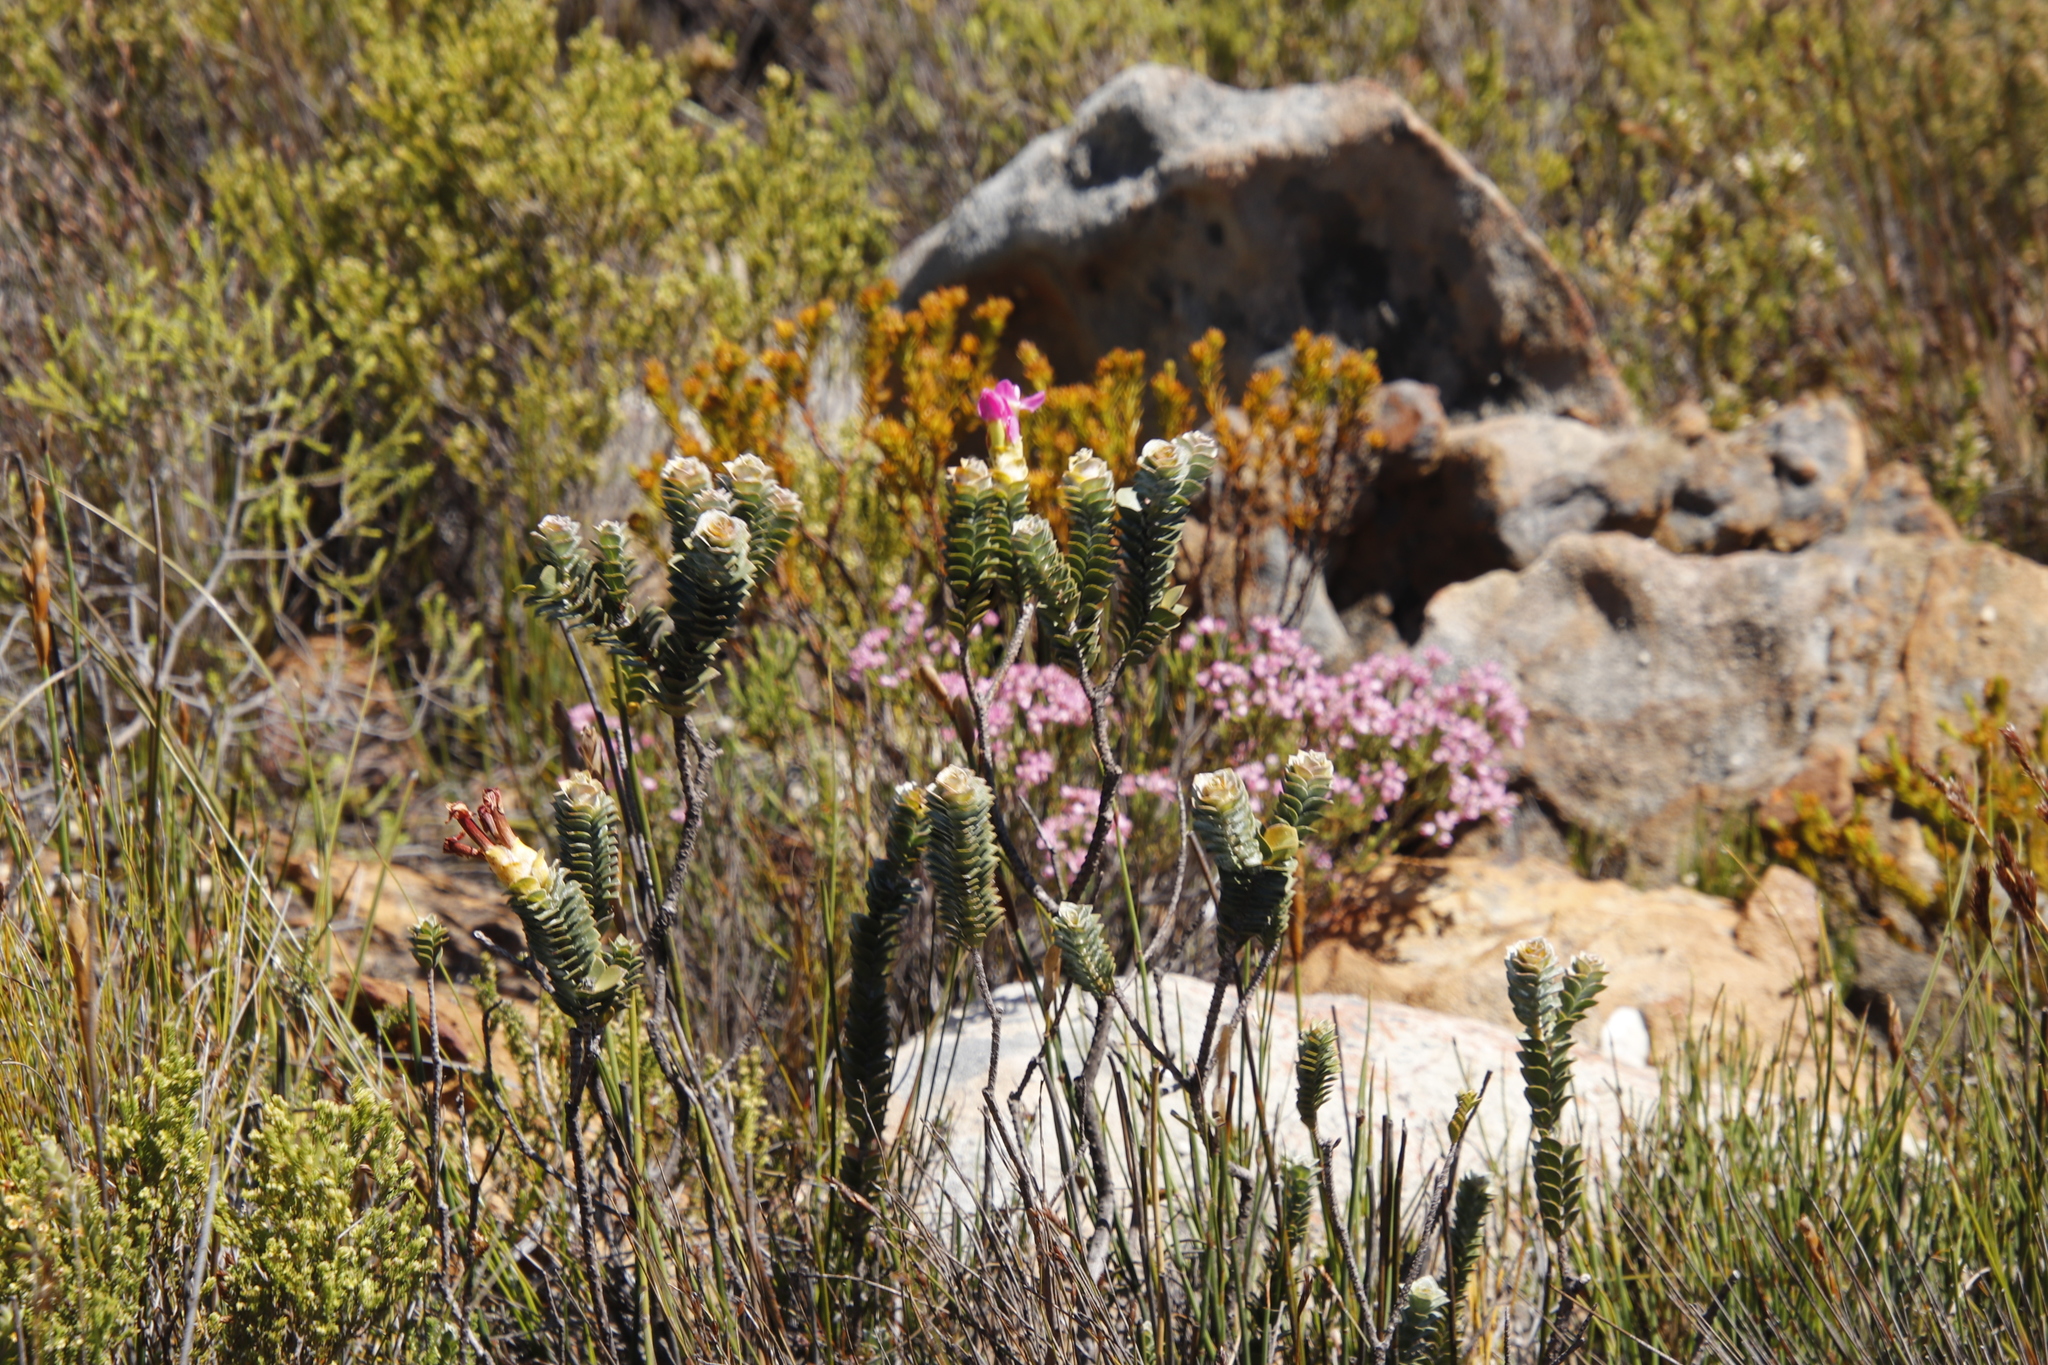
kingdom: Plantae
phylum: Tracheophyta
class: Magnoliopsida
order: Myrtales
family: Penaeaceae
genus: Saltera
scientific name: Saltera sarcocolla
